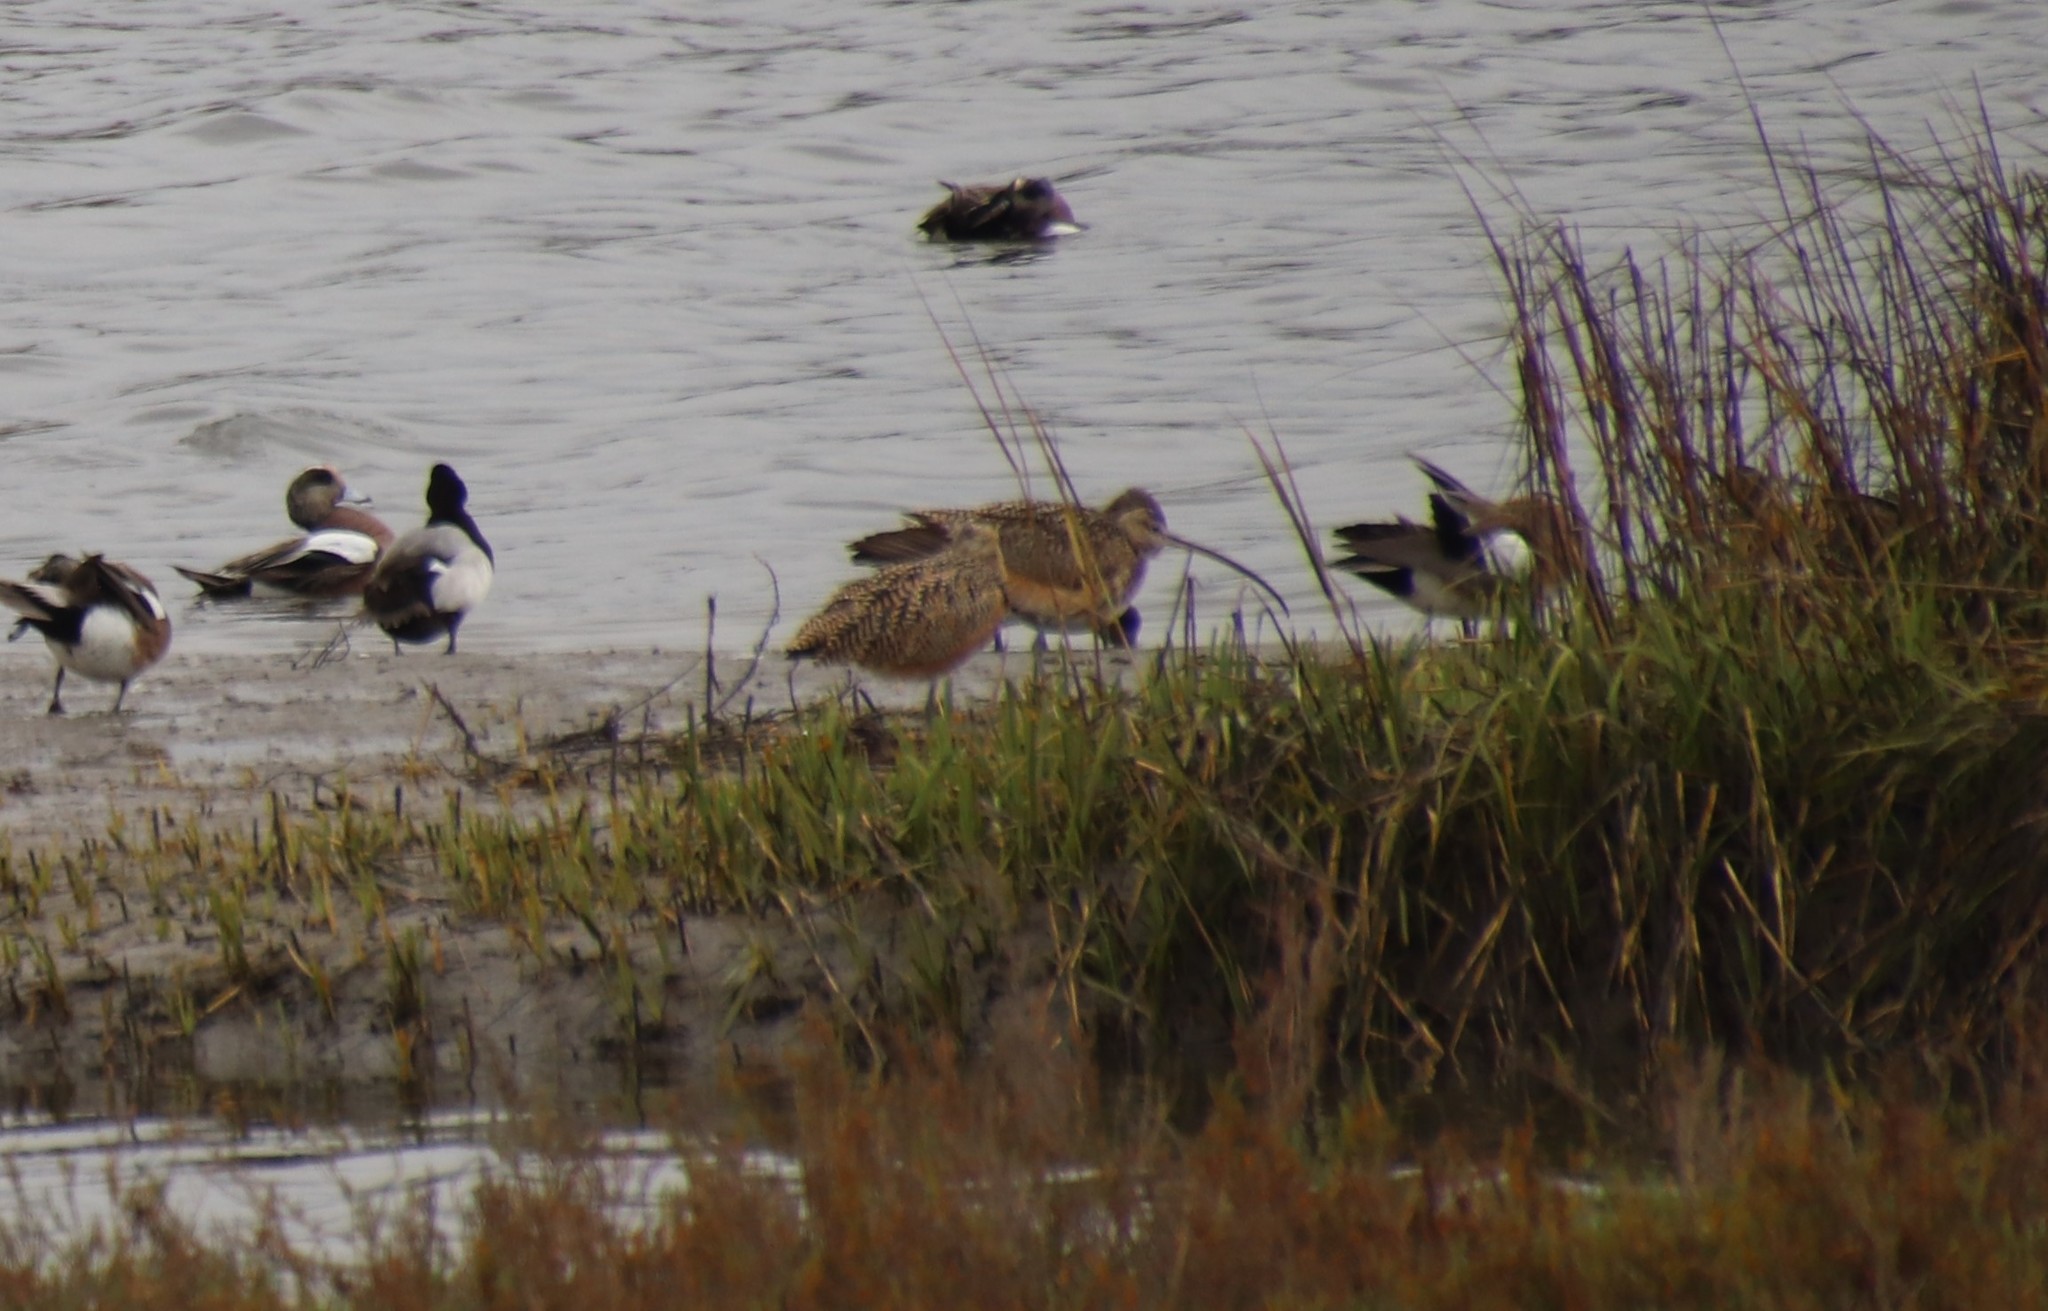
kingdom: Animalia
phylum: Chordata
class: Aves
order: Charadriiformes
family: Scolopacidae
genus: Numenius
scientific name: Numenius americanus
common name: Long-billed curlew
